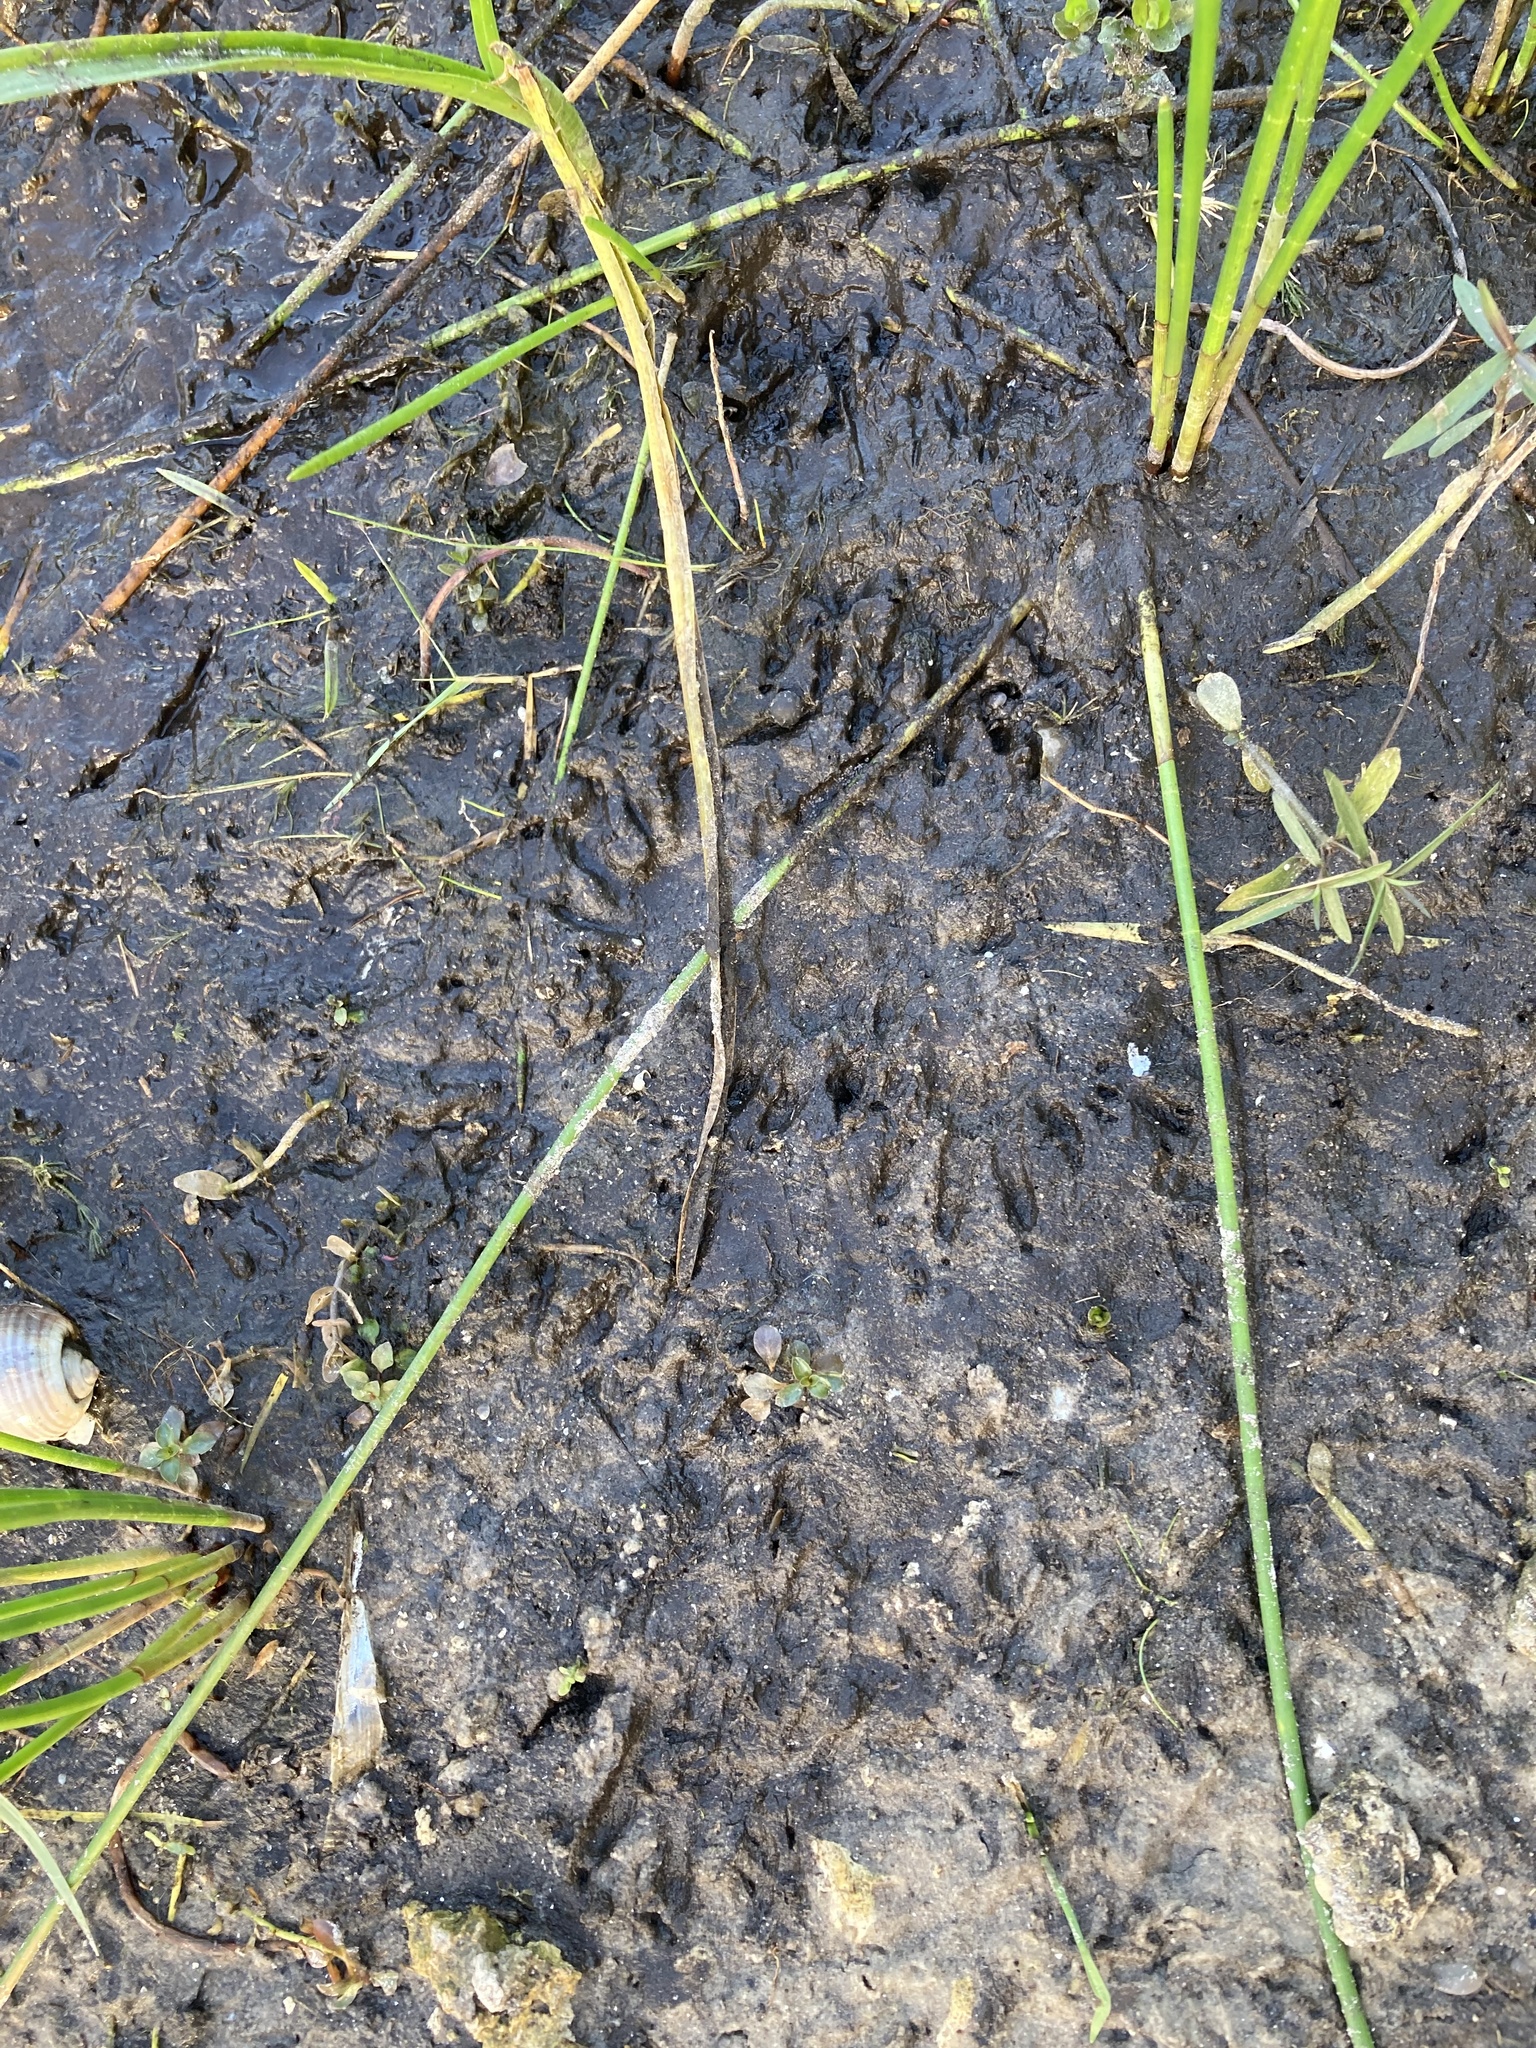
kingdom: Animalia
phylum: Chordata
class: Mammalia
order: Carnivora
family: Procyonidae
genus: Procyon
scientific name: Procyon lotor
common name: Raccoon
